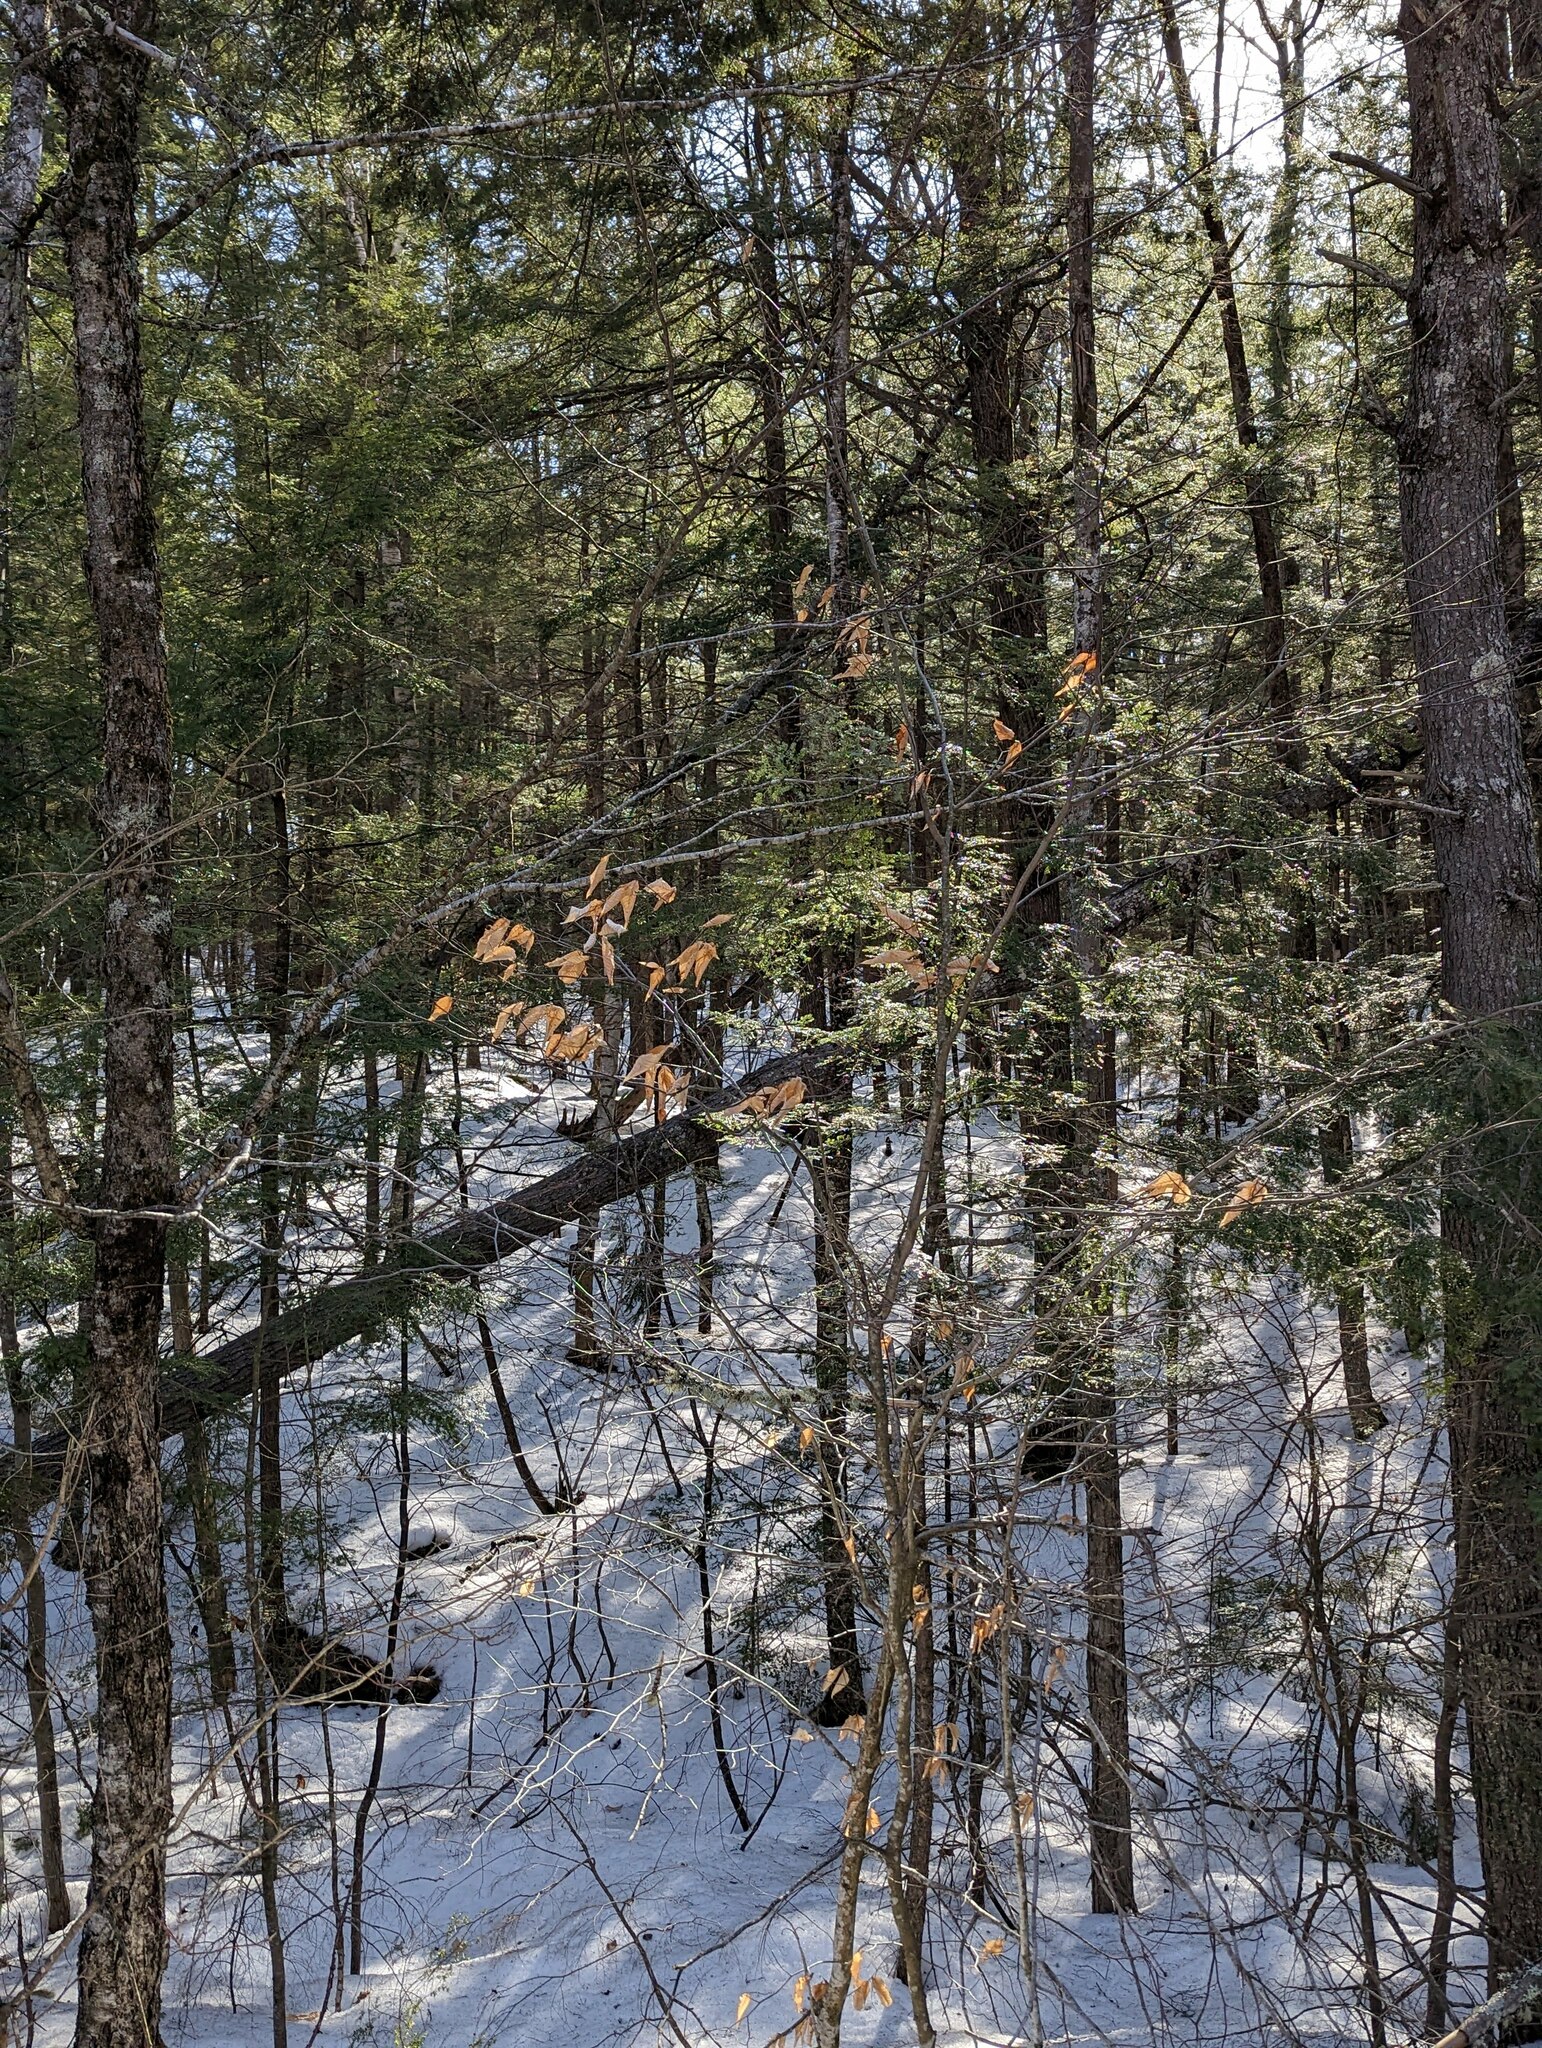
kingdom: Plantae
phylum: Tracheophyta
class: Magnoliopsida
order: Fagales
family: Fagaceae
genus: Fagus
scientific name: Fagus grandifolia
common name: American beech
